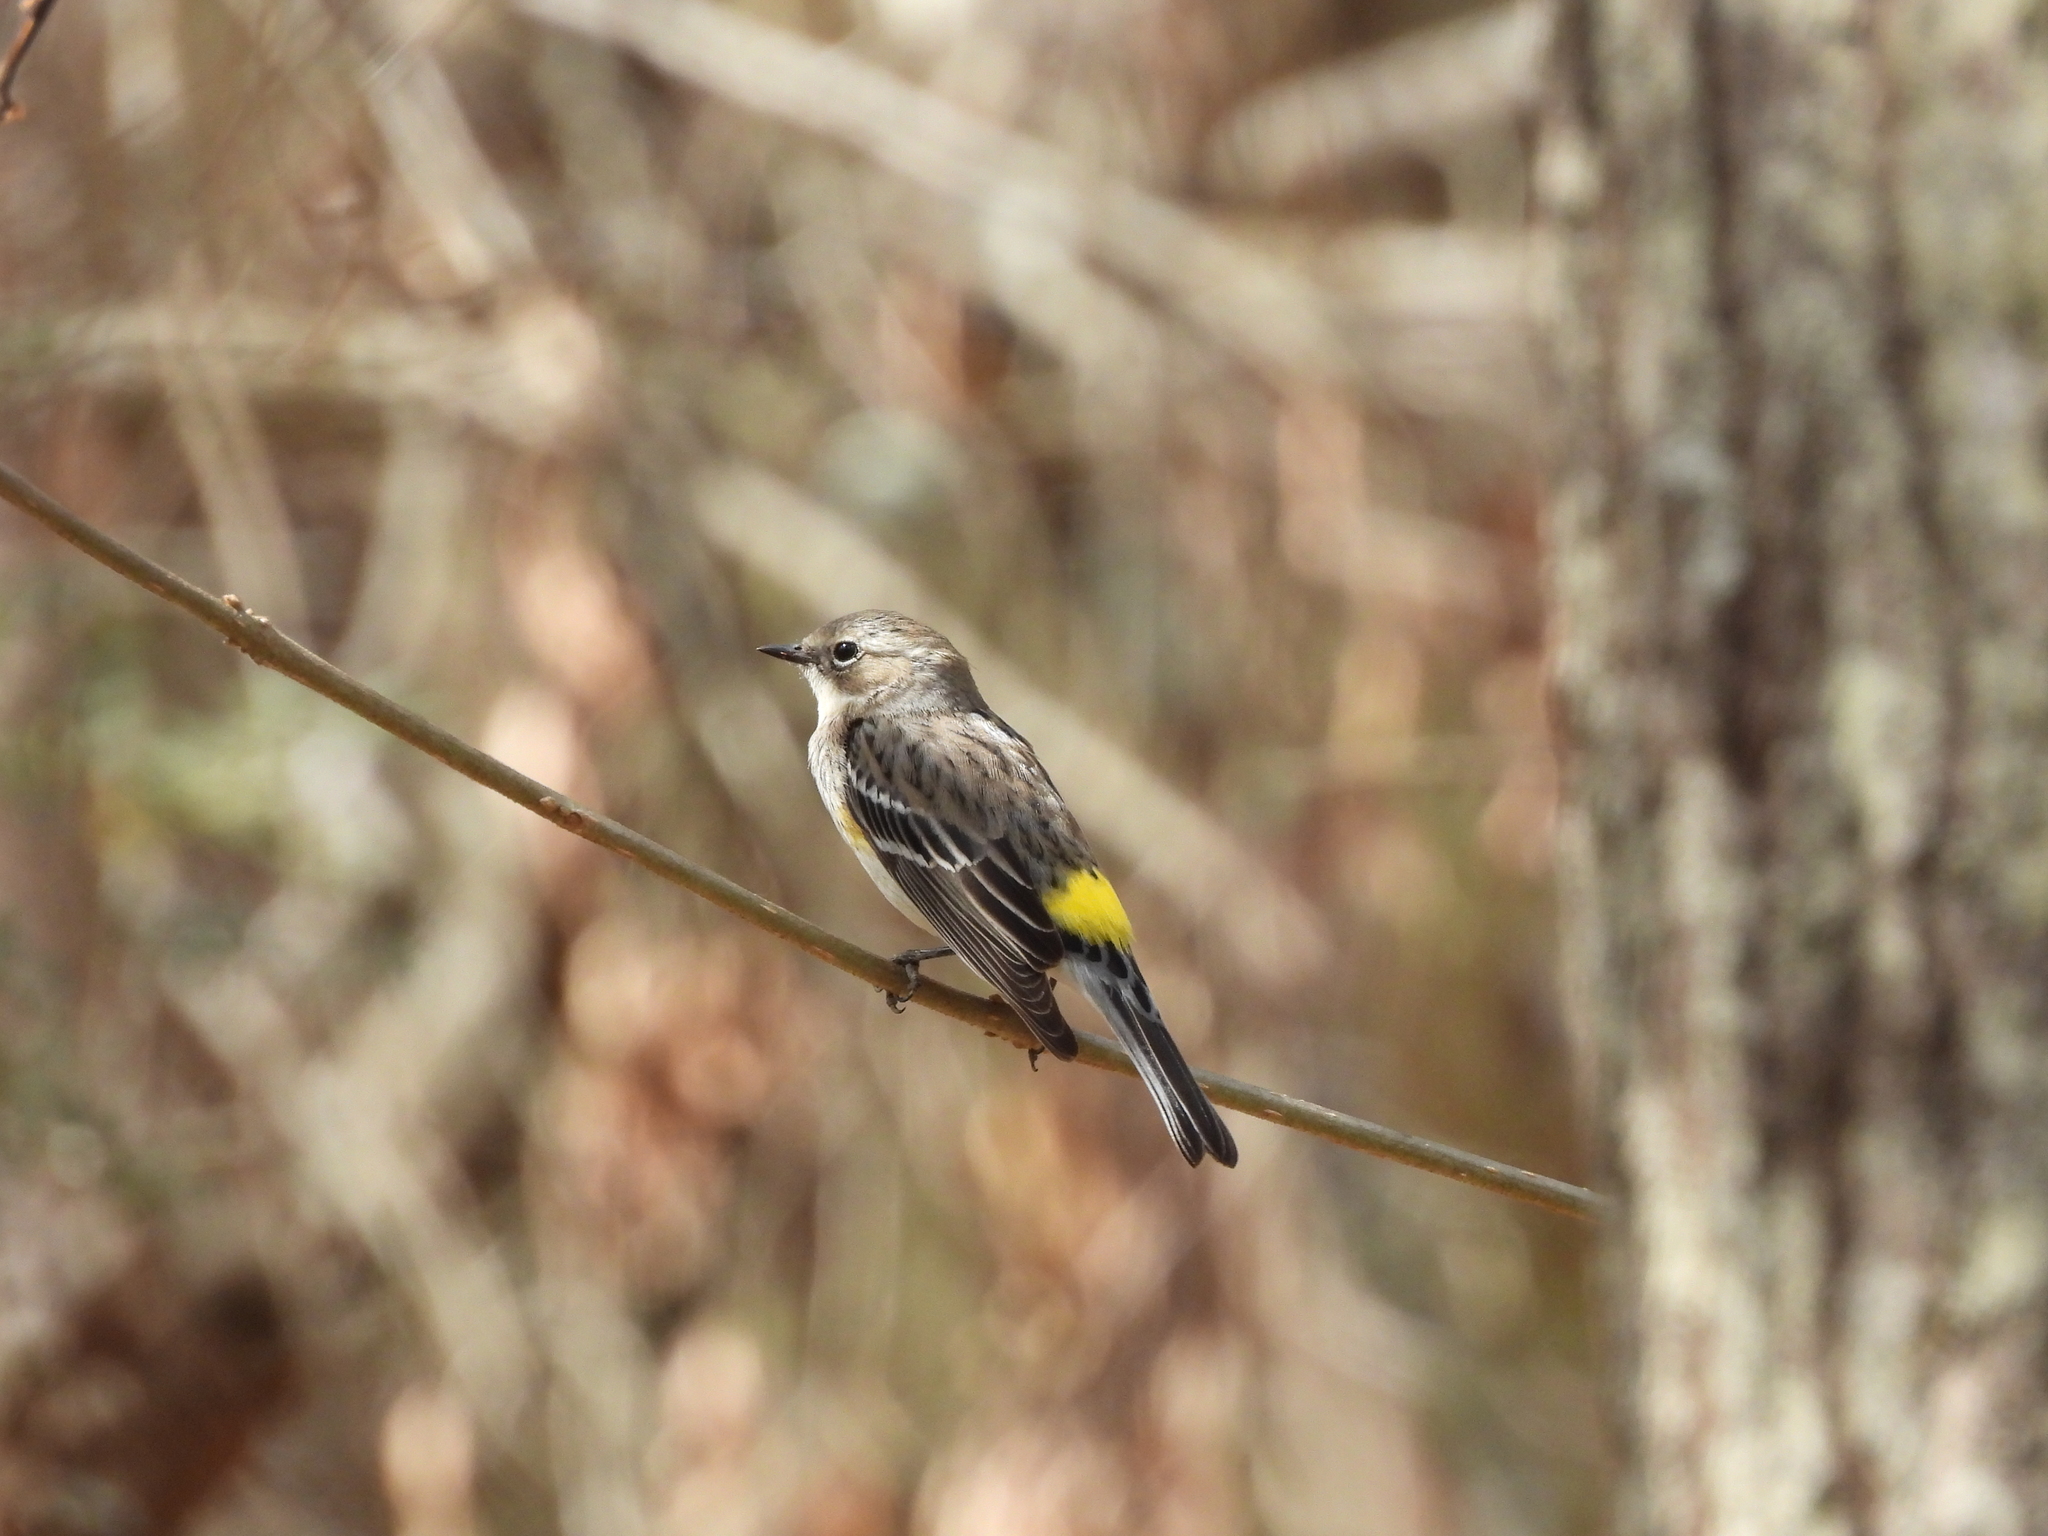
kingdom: Animalia
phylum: Chordata
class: Aves
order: Passeriformes
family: Parulidae
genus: Setophaga
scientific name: Setophaga coronata
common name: Myrtle warbler
